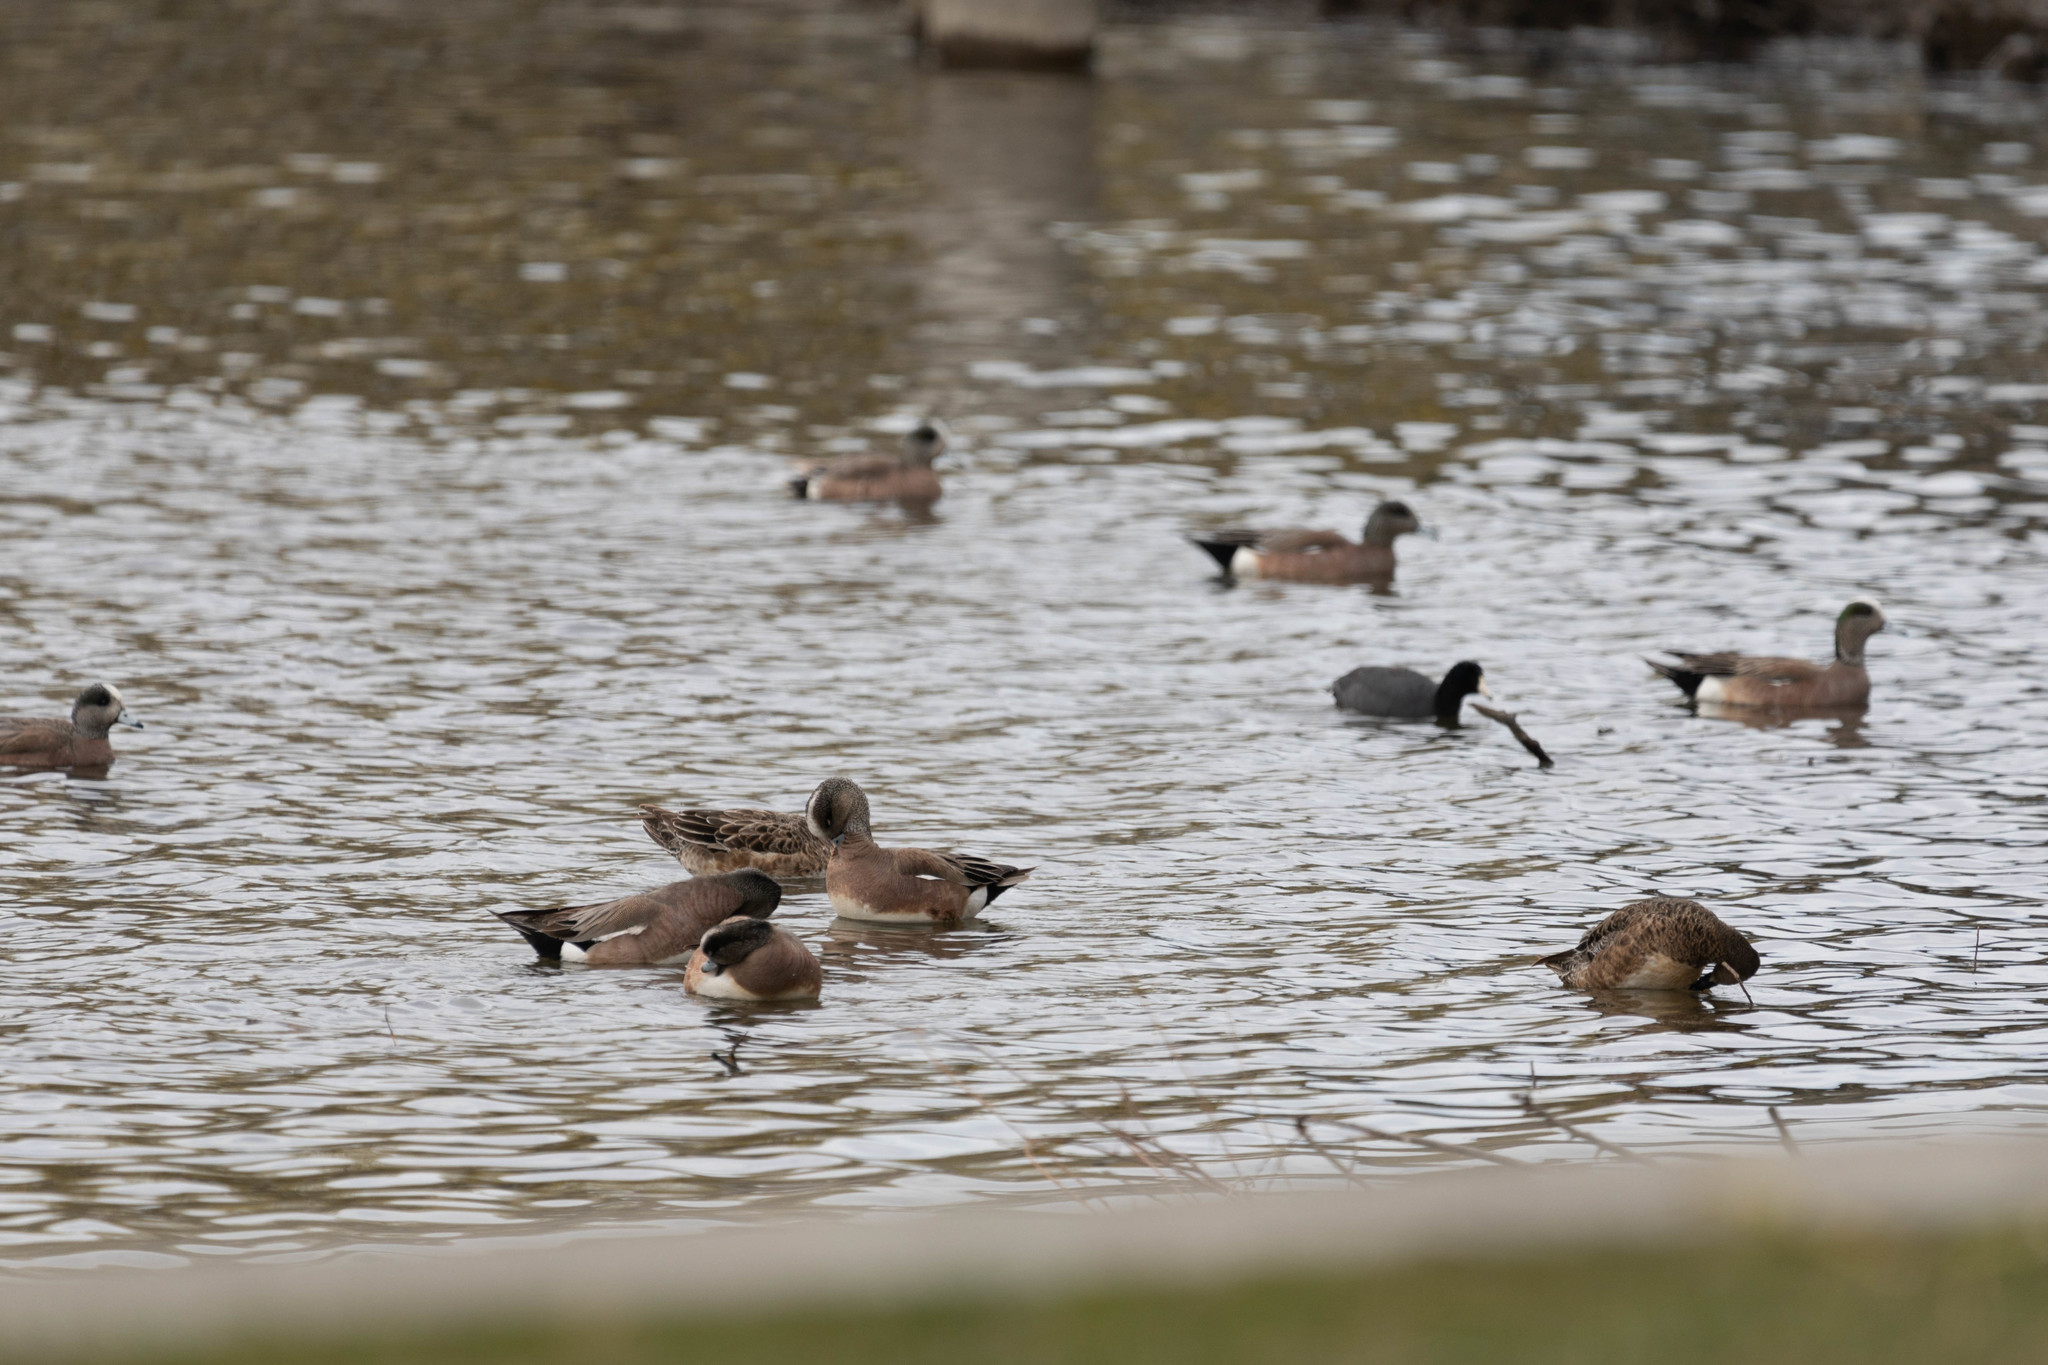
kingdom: Animalia
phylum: Chordata
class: Aves
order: Anseriformes
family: Anatidae
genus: Mareca
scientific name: Mareca americana
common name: American wigeon
